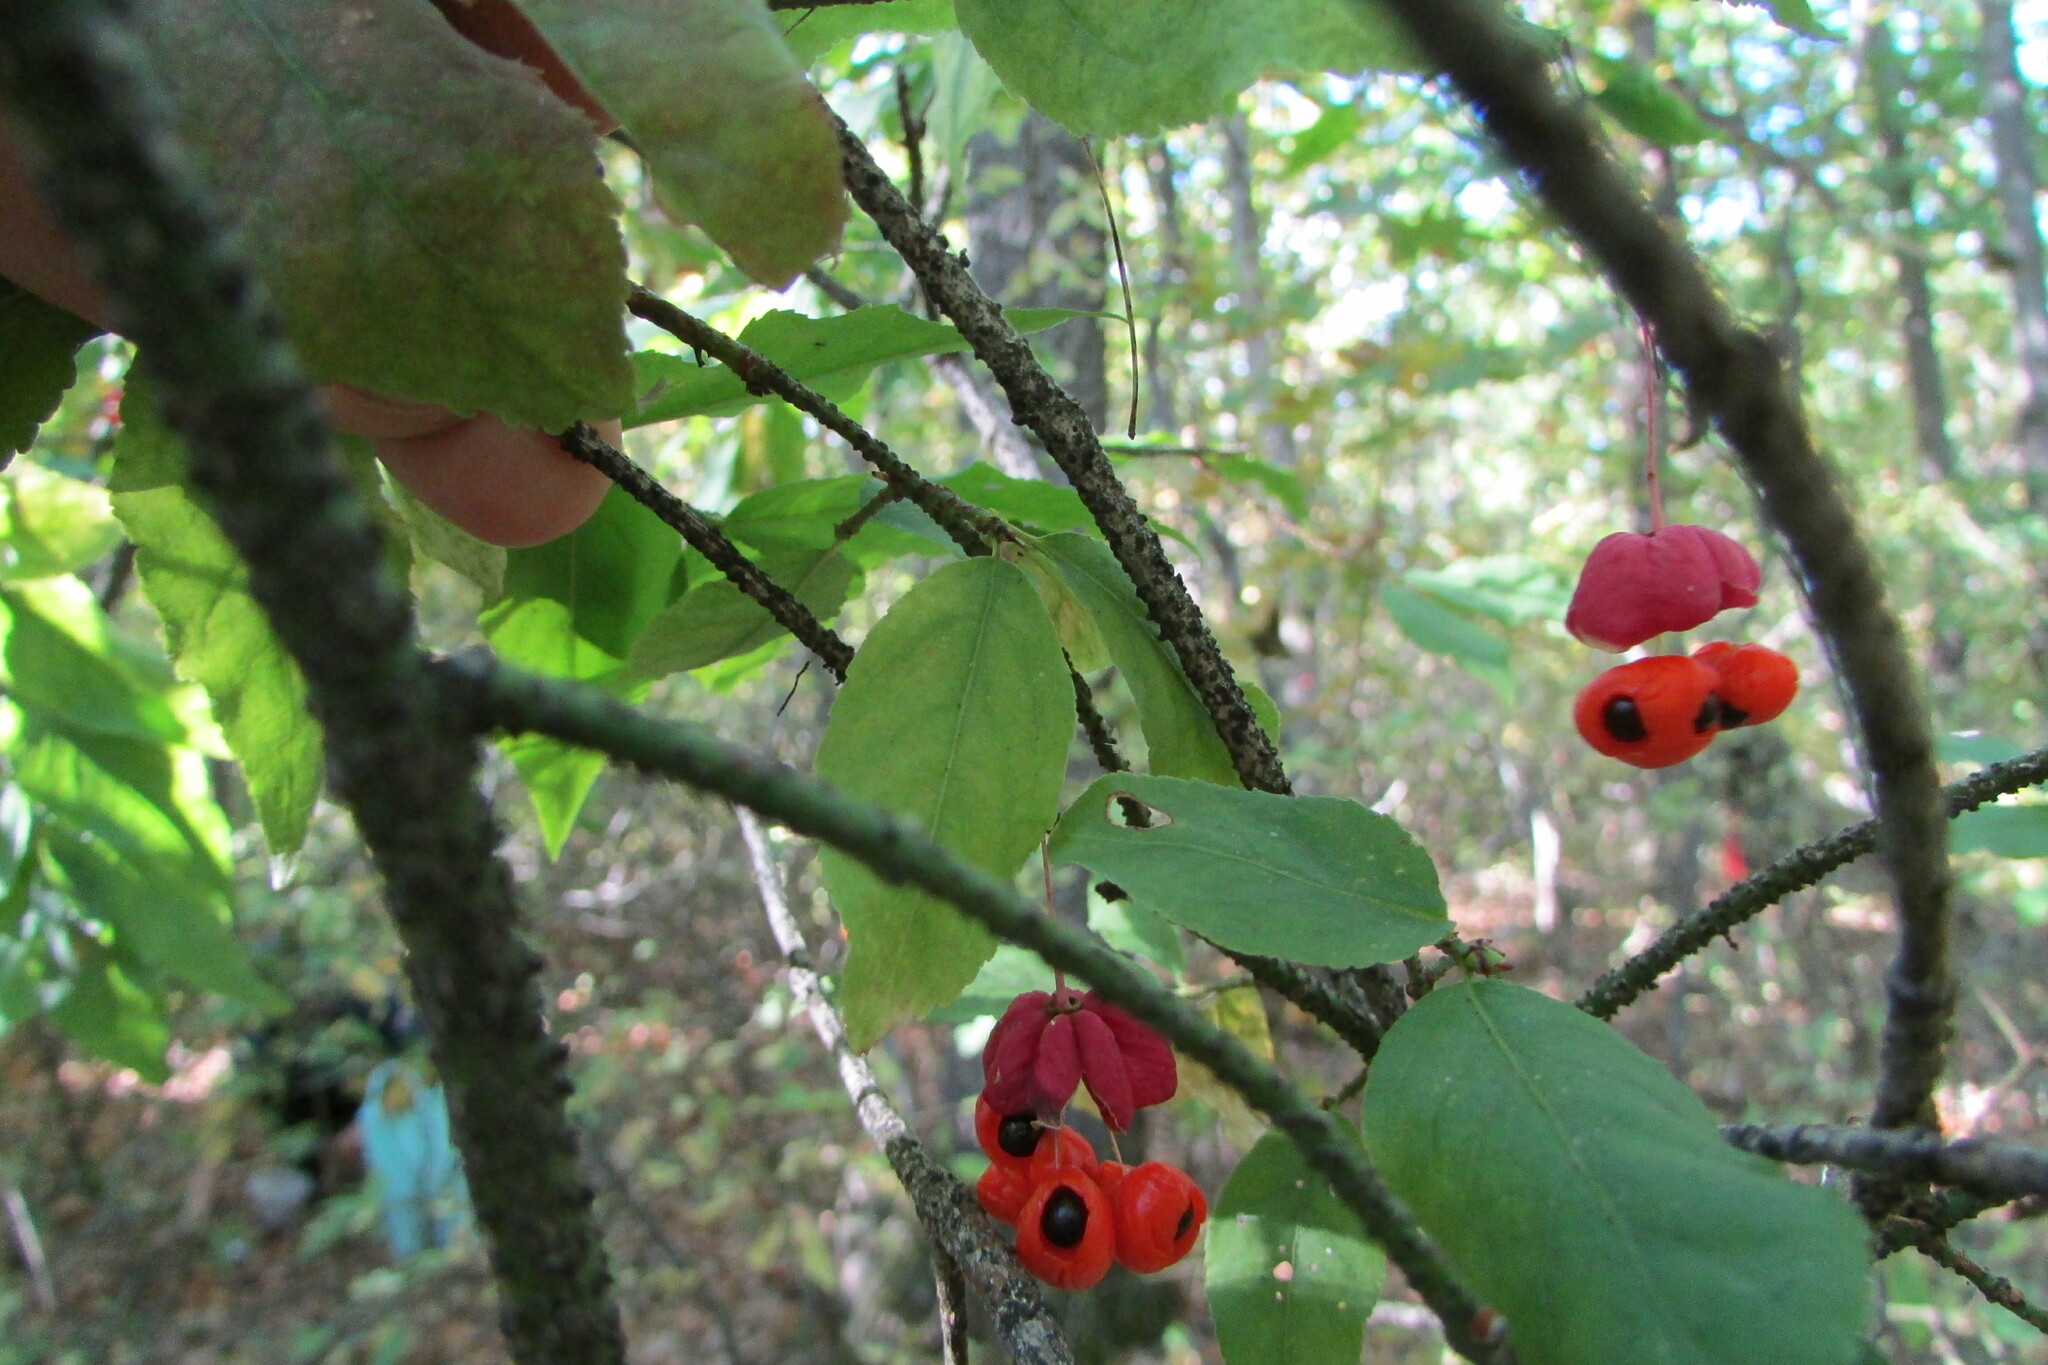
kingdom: Plantae
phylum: Tracheophyta
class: Magnoliopsida
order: Celastrales
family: Celastraceae
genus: Euonymus
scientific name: Euonymus verrucosus
